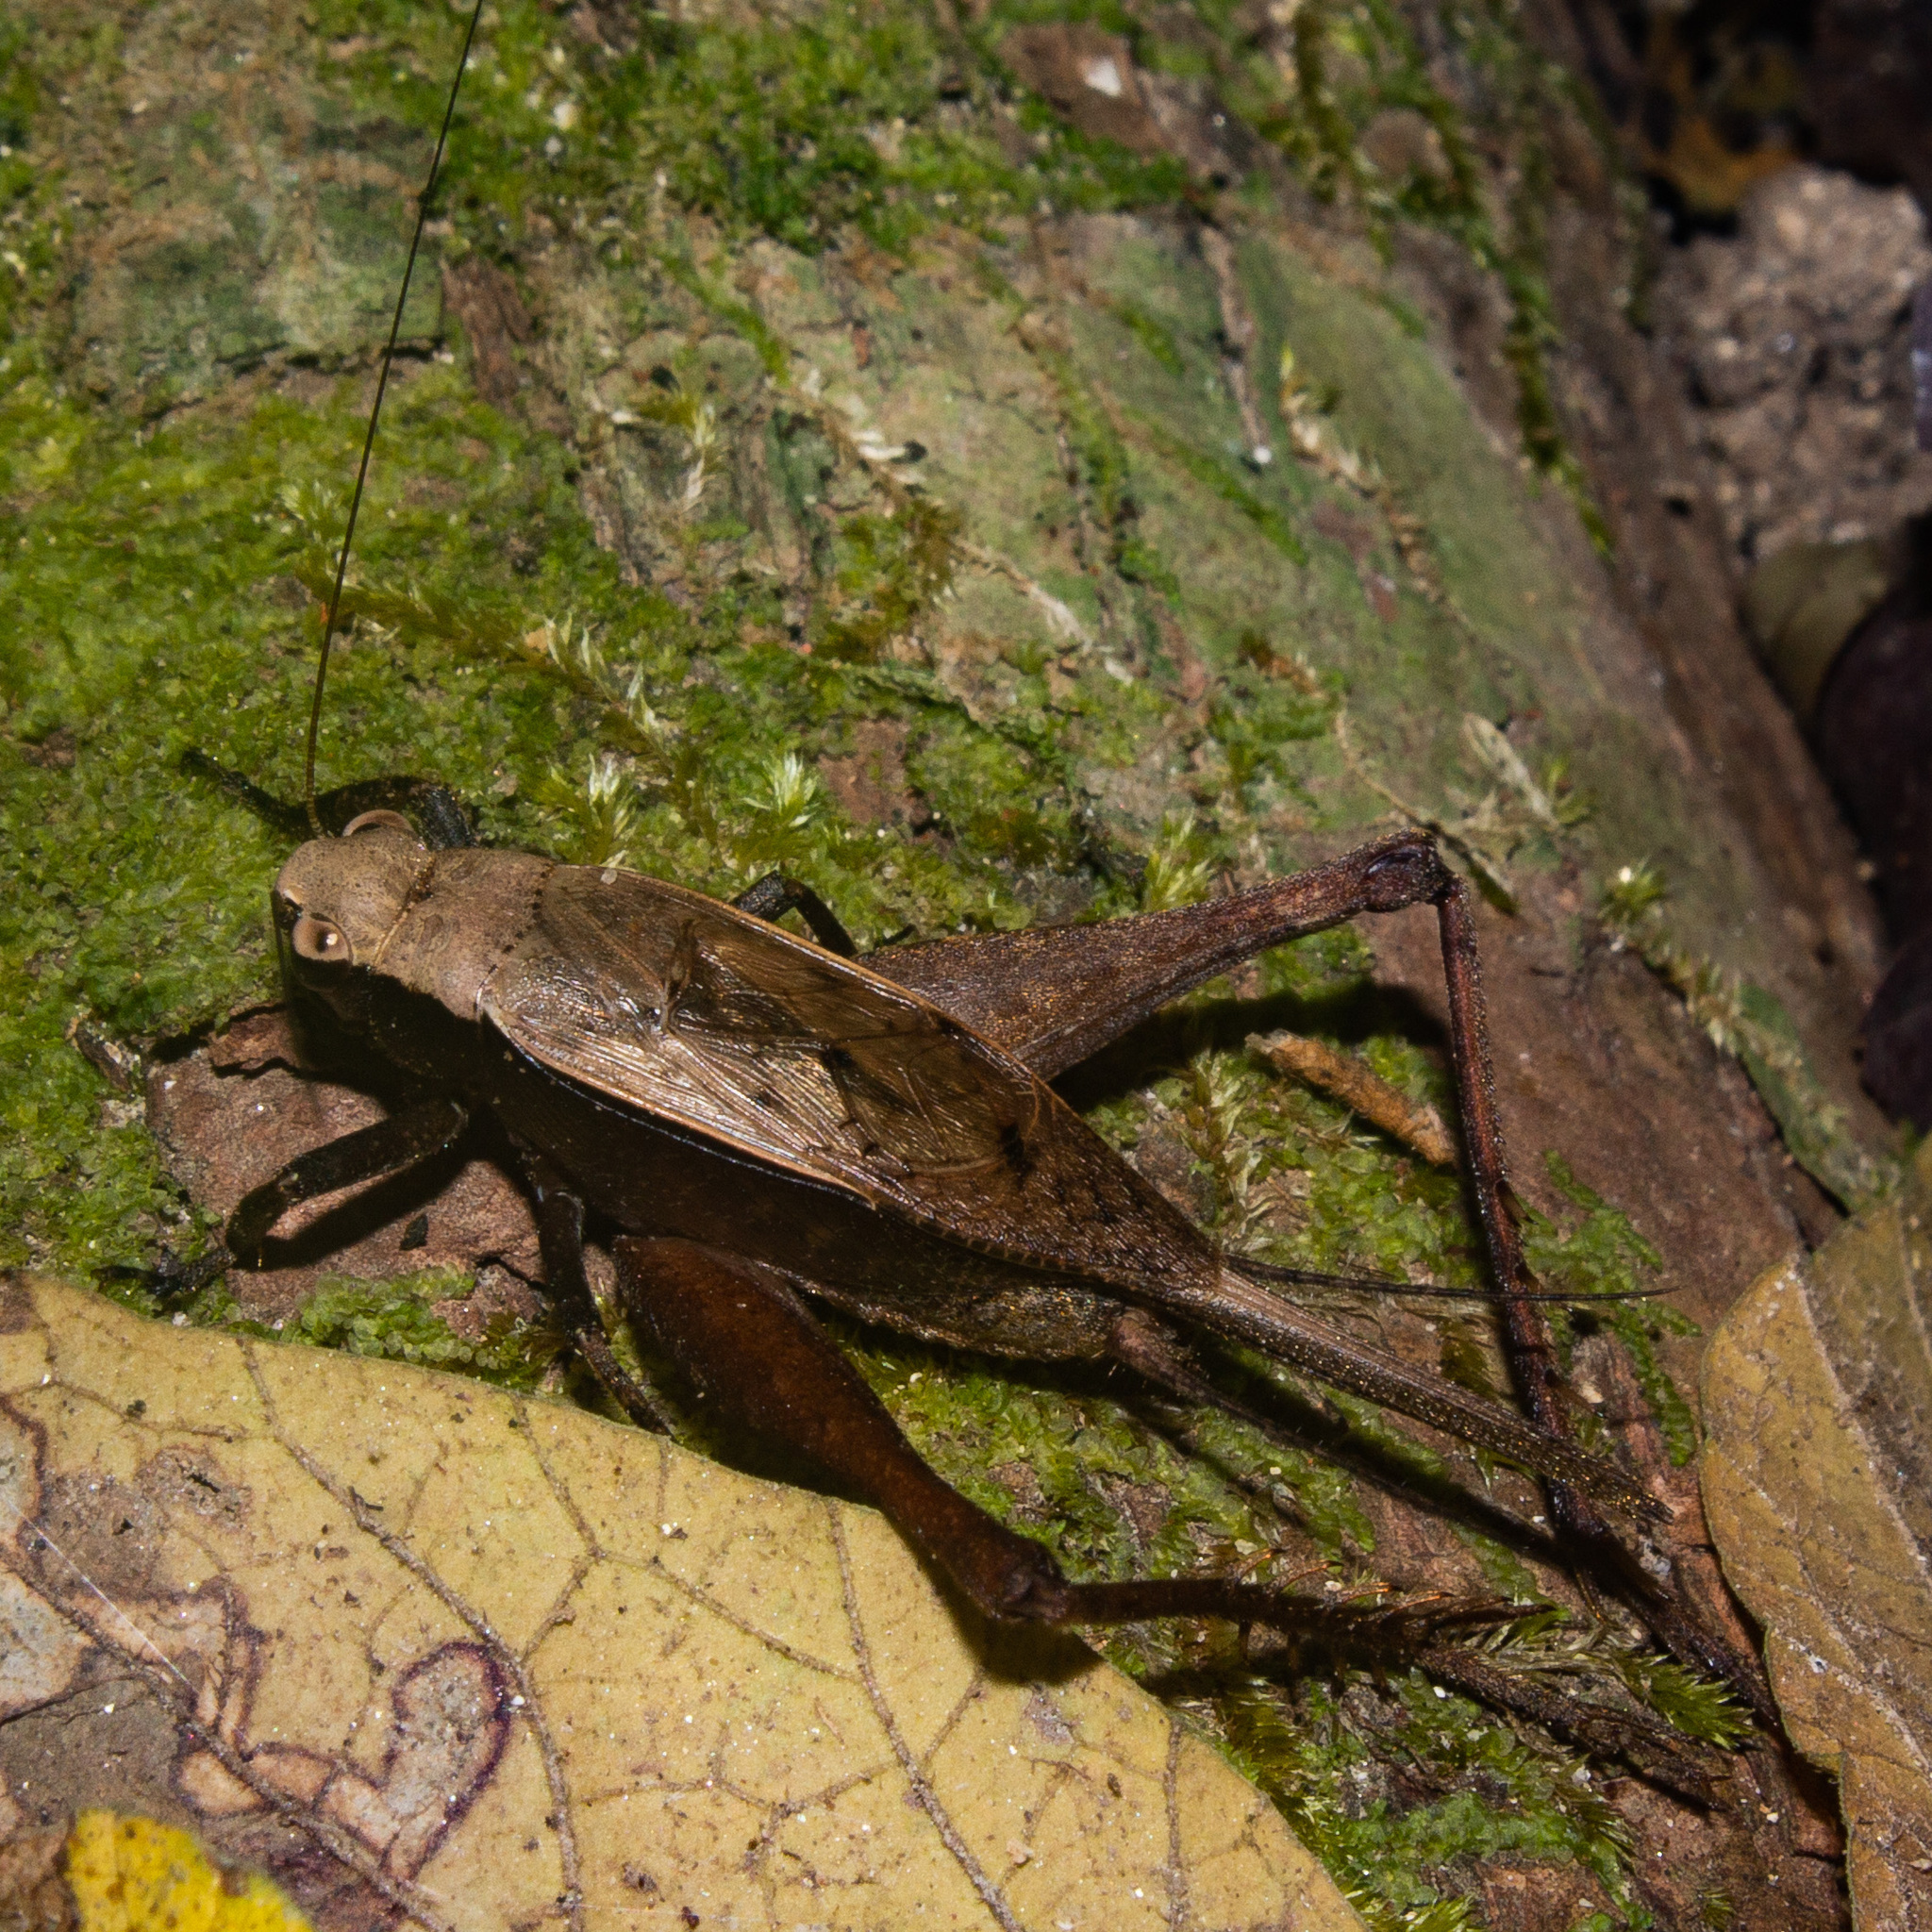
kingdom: Animalia
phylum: Arthropoda
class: Insecta
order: Orthoptera
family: Gryllidae
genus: Eneoptera
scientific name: Eneoptera surinamensis
